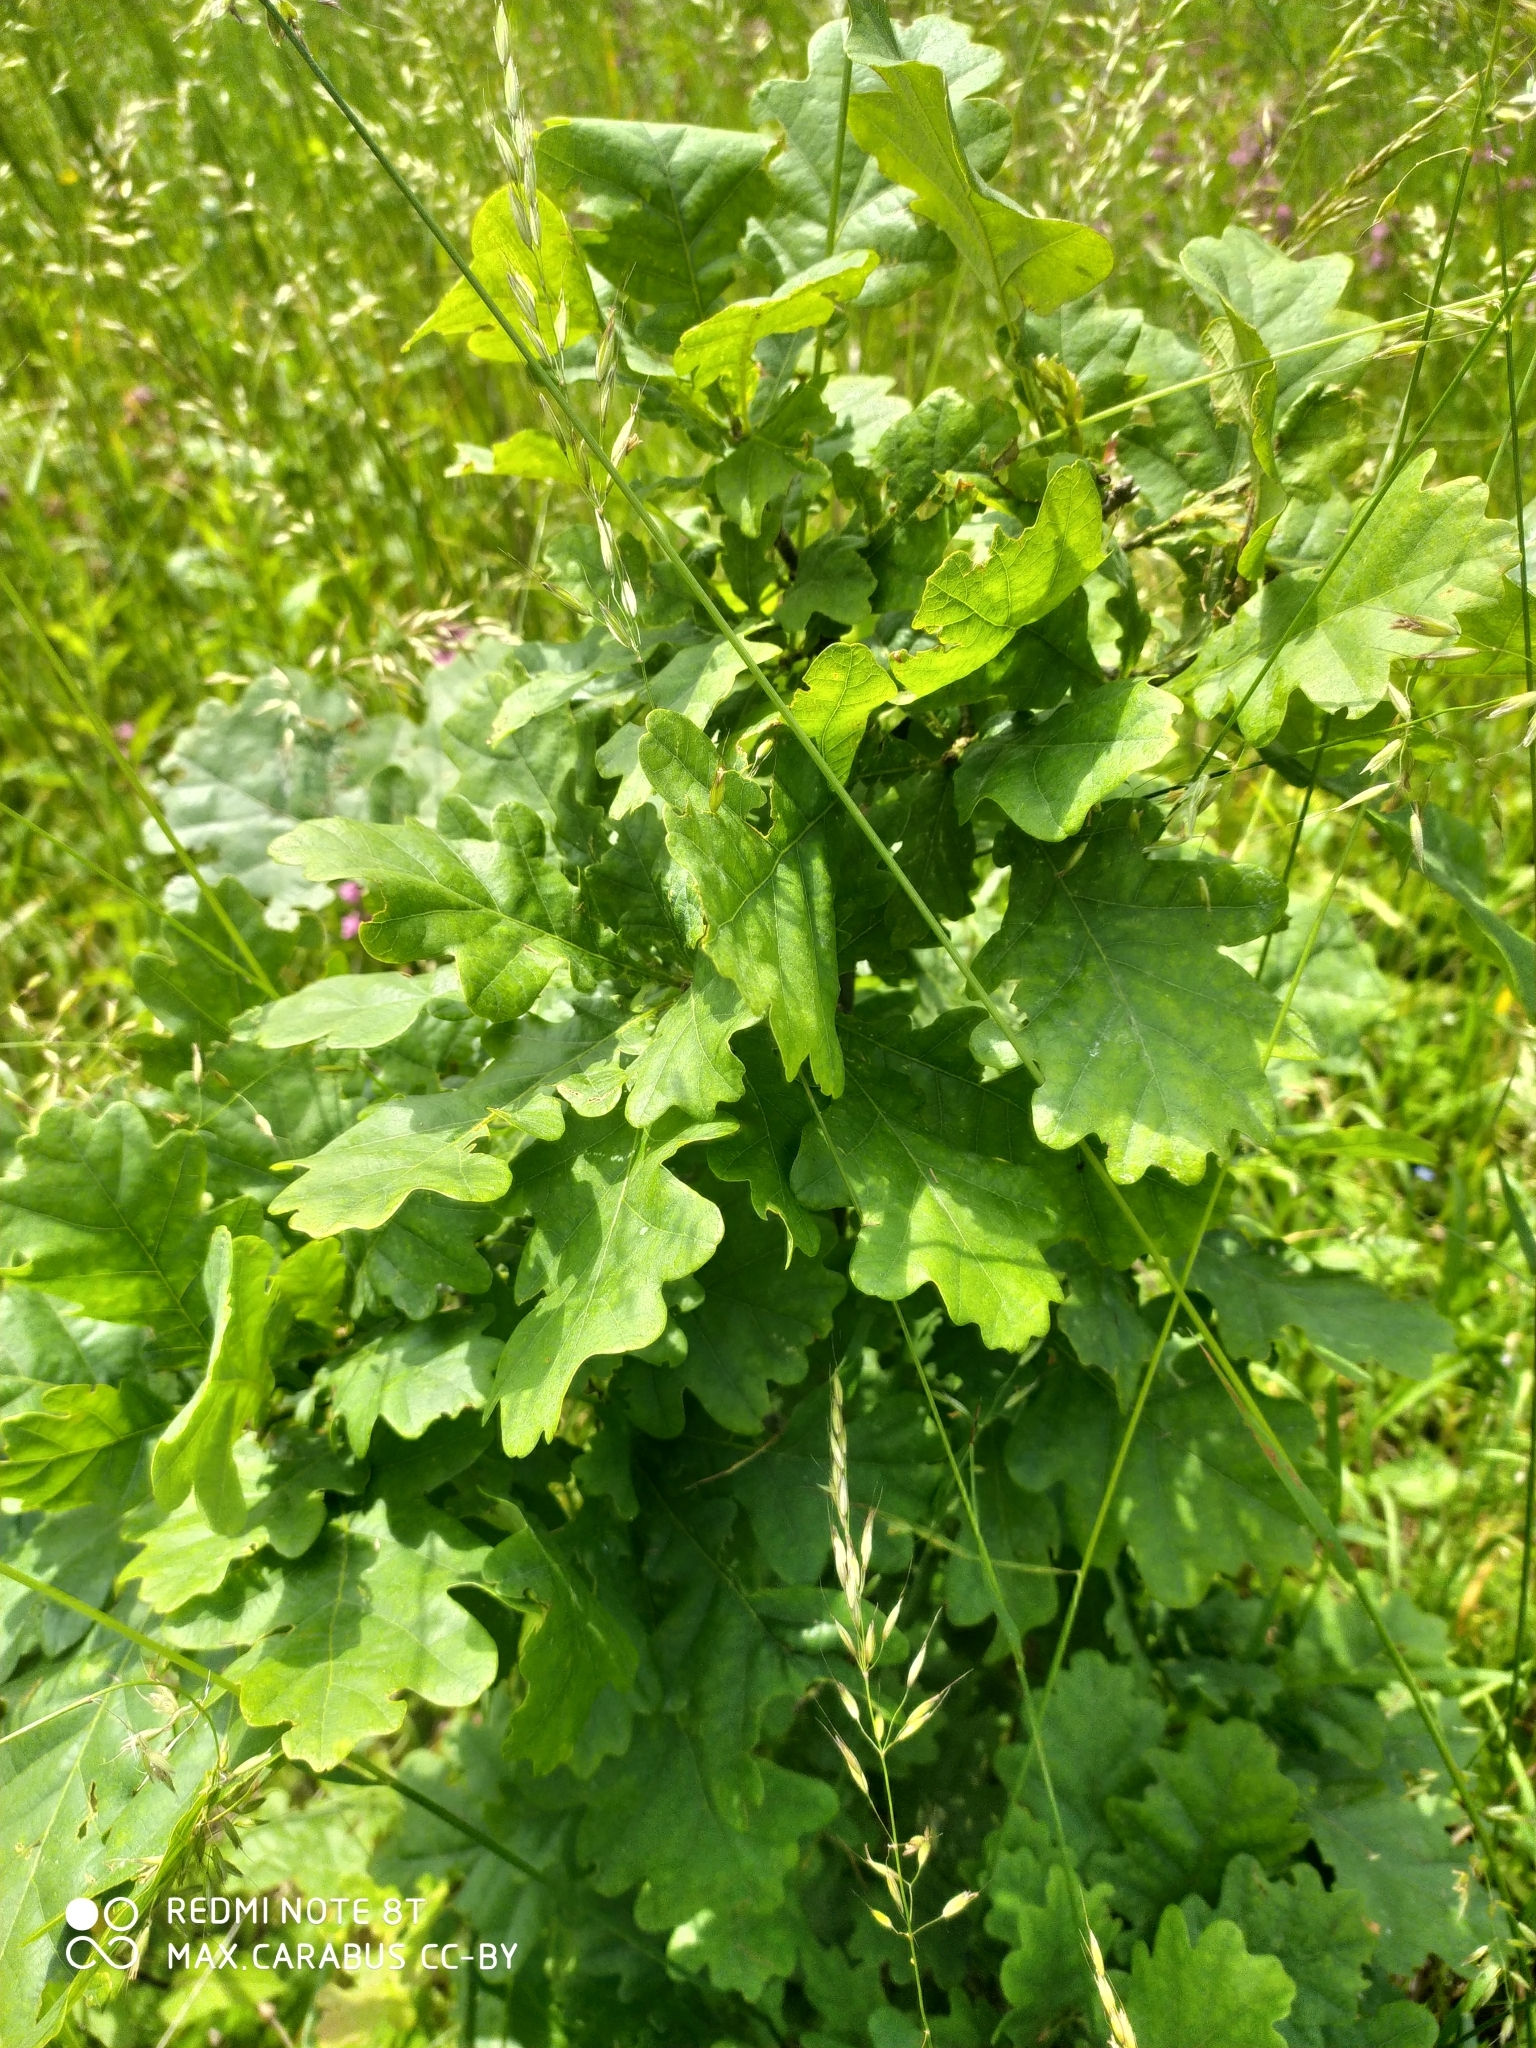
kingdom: Plantae
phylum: Tracheophyta
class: Magnoliopsida
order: Fagales
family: Fagaceae
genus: Quercus
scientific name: Quercus robur
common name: Pedunculate oak
